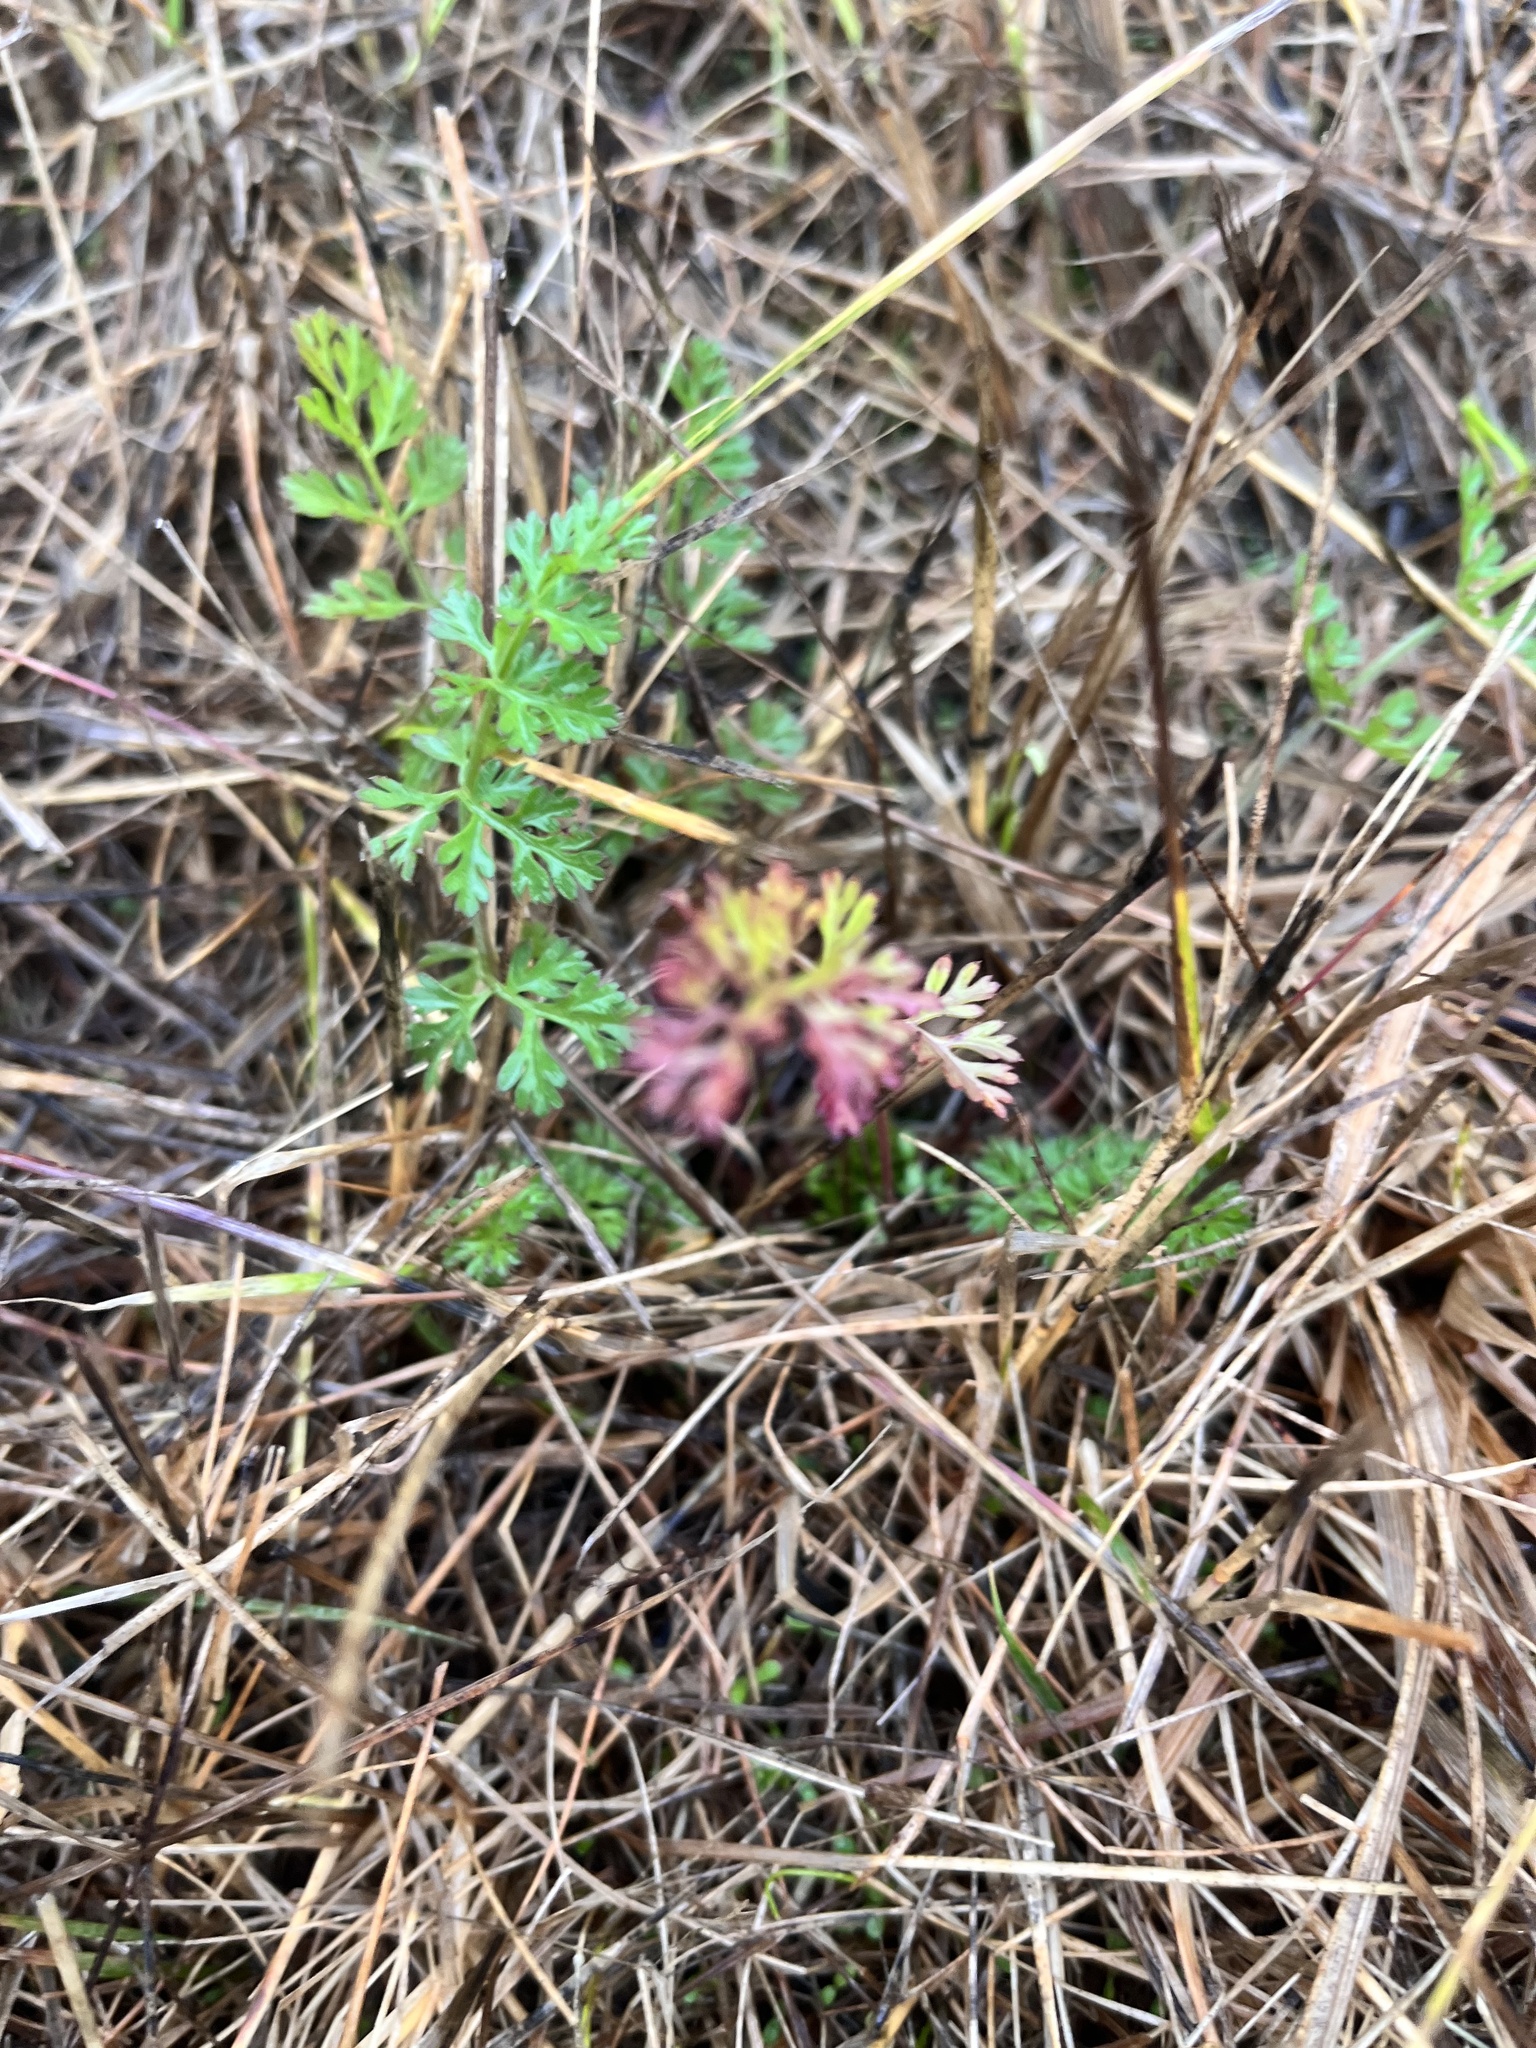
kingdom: Plantae
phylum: Tracheophyta
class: Magnoliopsida
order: Apiales
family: Apiaceae
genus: Daucus
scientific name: Daucus carota
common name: Wild carrot
